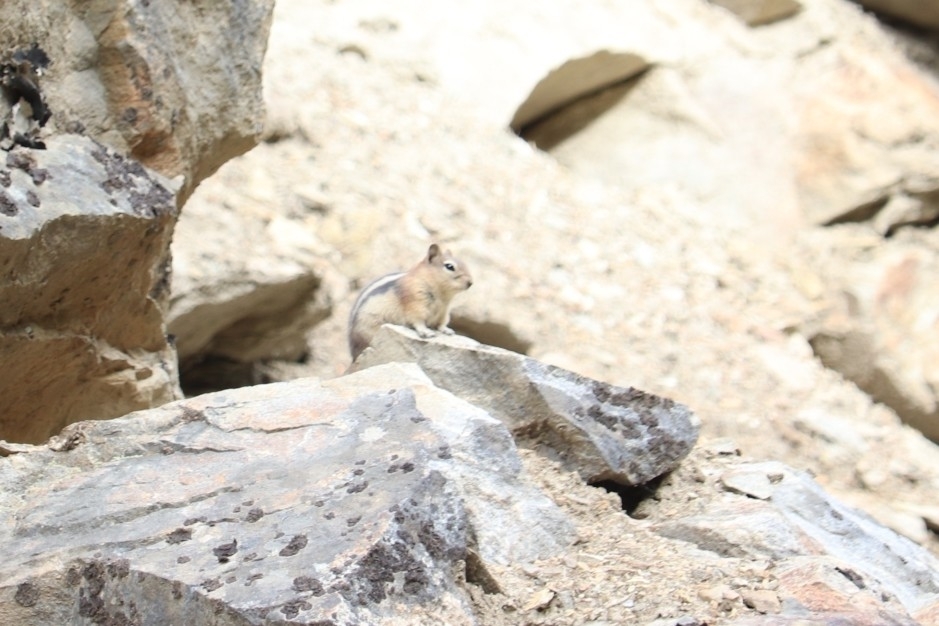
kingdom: Animalia
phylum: Chordata
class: Mammalia
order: Rodentia
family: Sciuridae
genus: Callospermophilus
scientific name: Callospermophilus lateralis
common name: Golden-mantled ground squirrel
